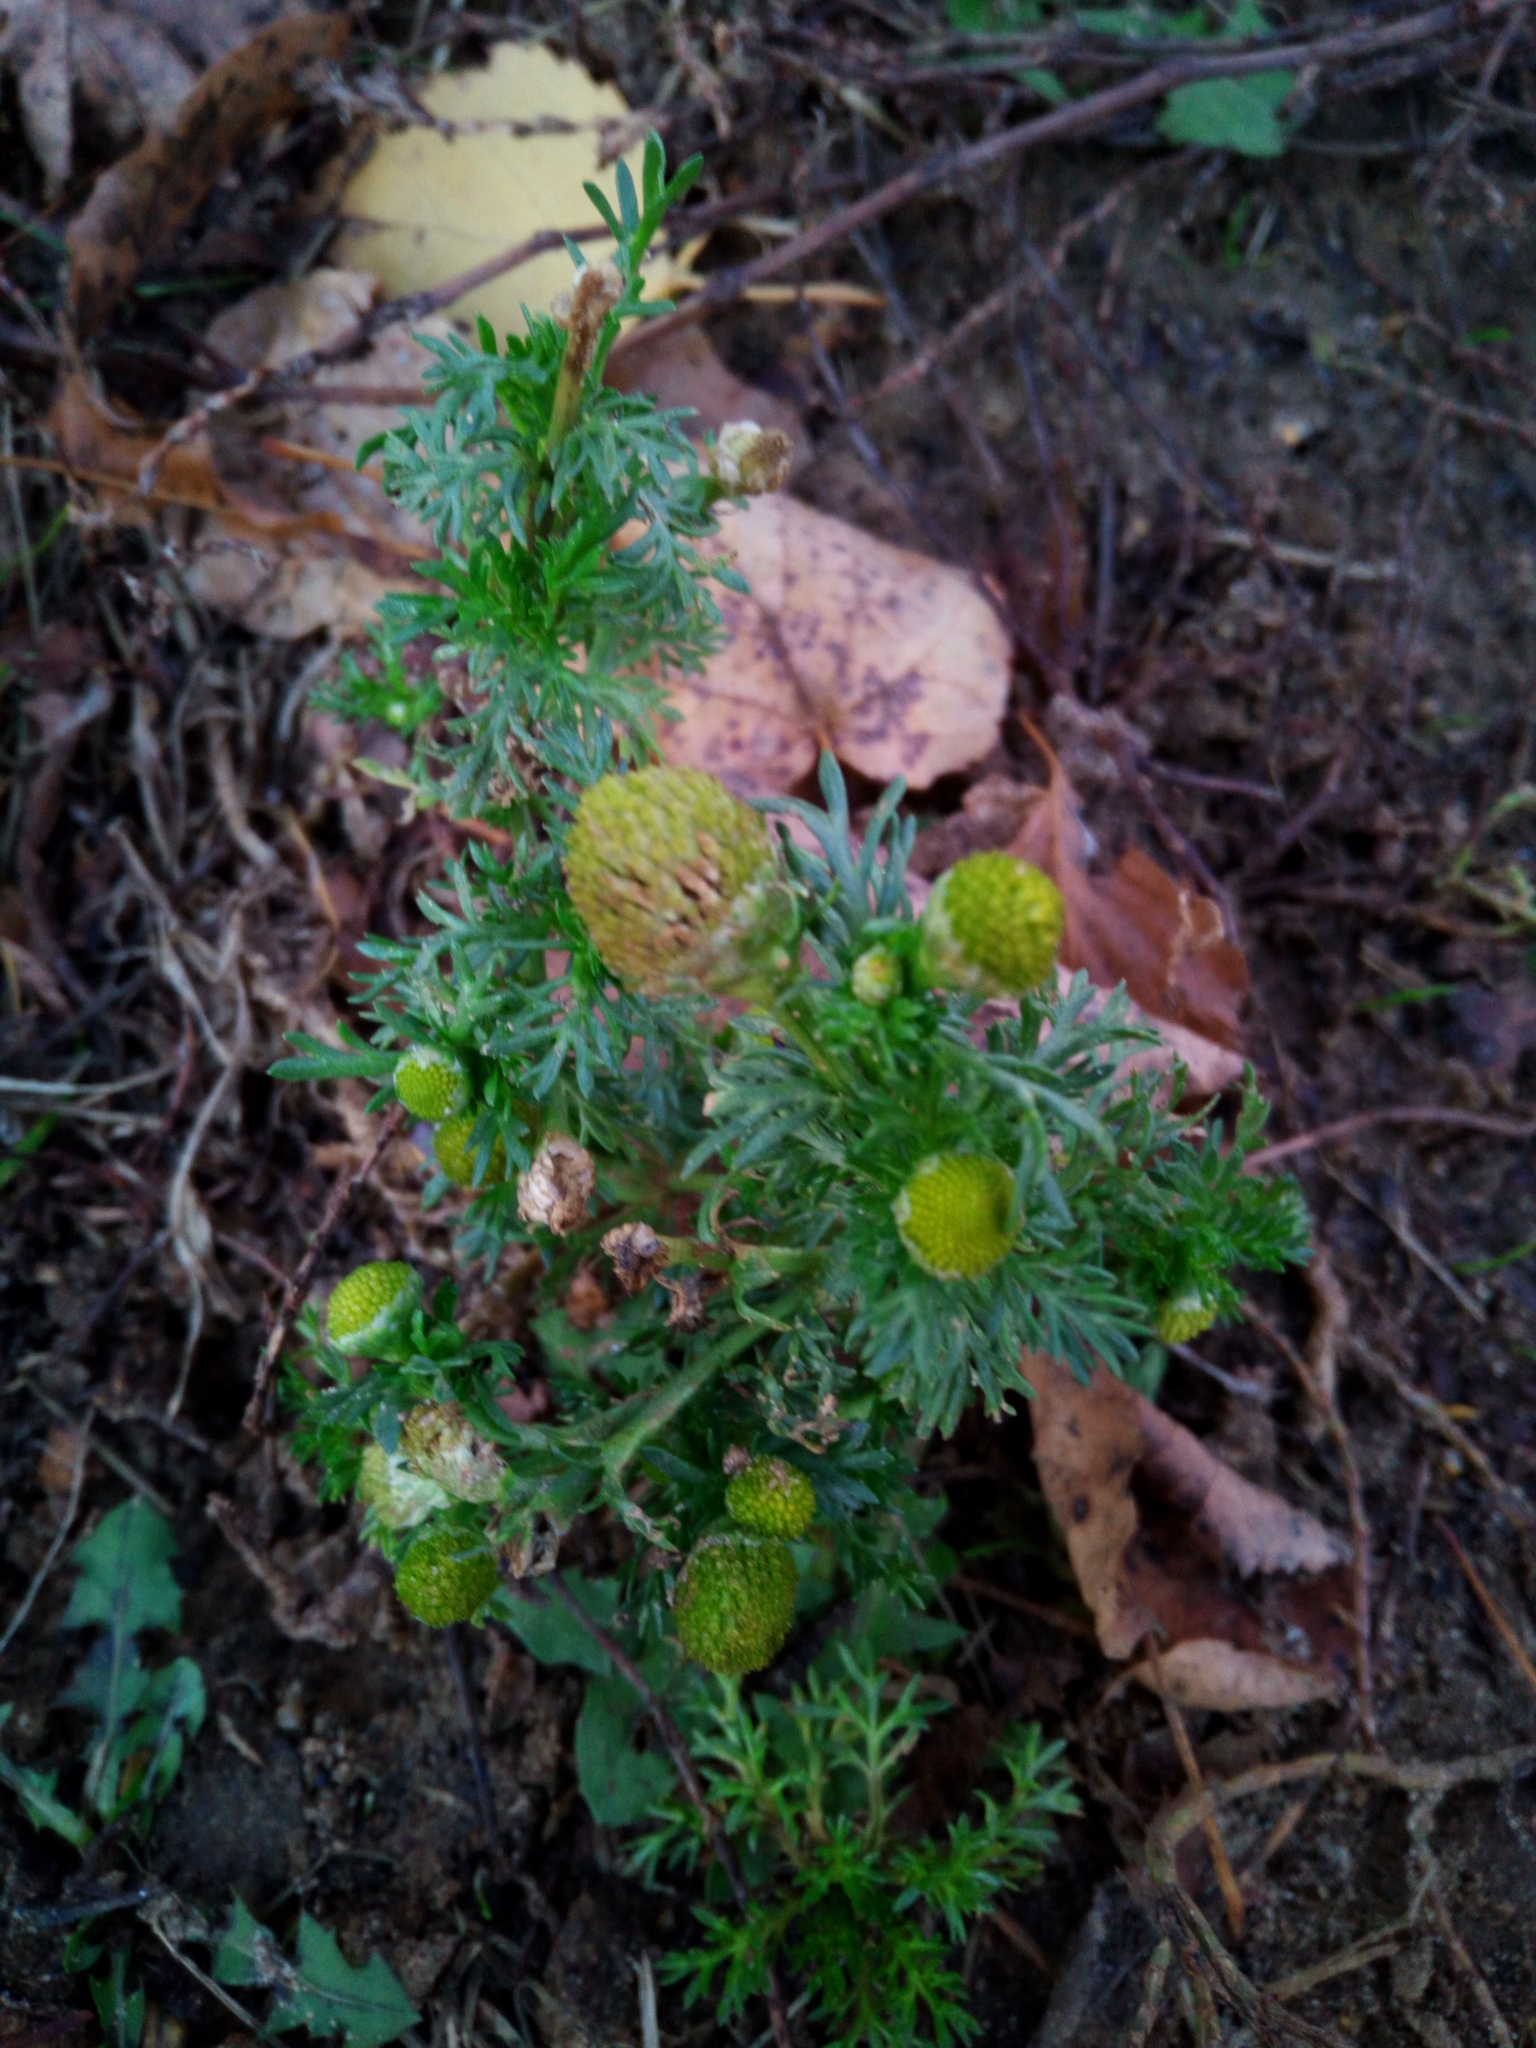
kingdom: Plantae
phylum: Tracheophyta
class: Magnoliopsida
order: Asterales
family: Asteraceae
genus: Matricaria
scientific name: Matricaria discoidea
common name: Disc mayweed
